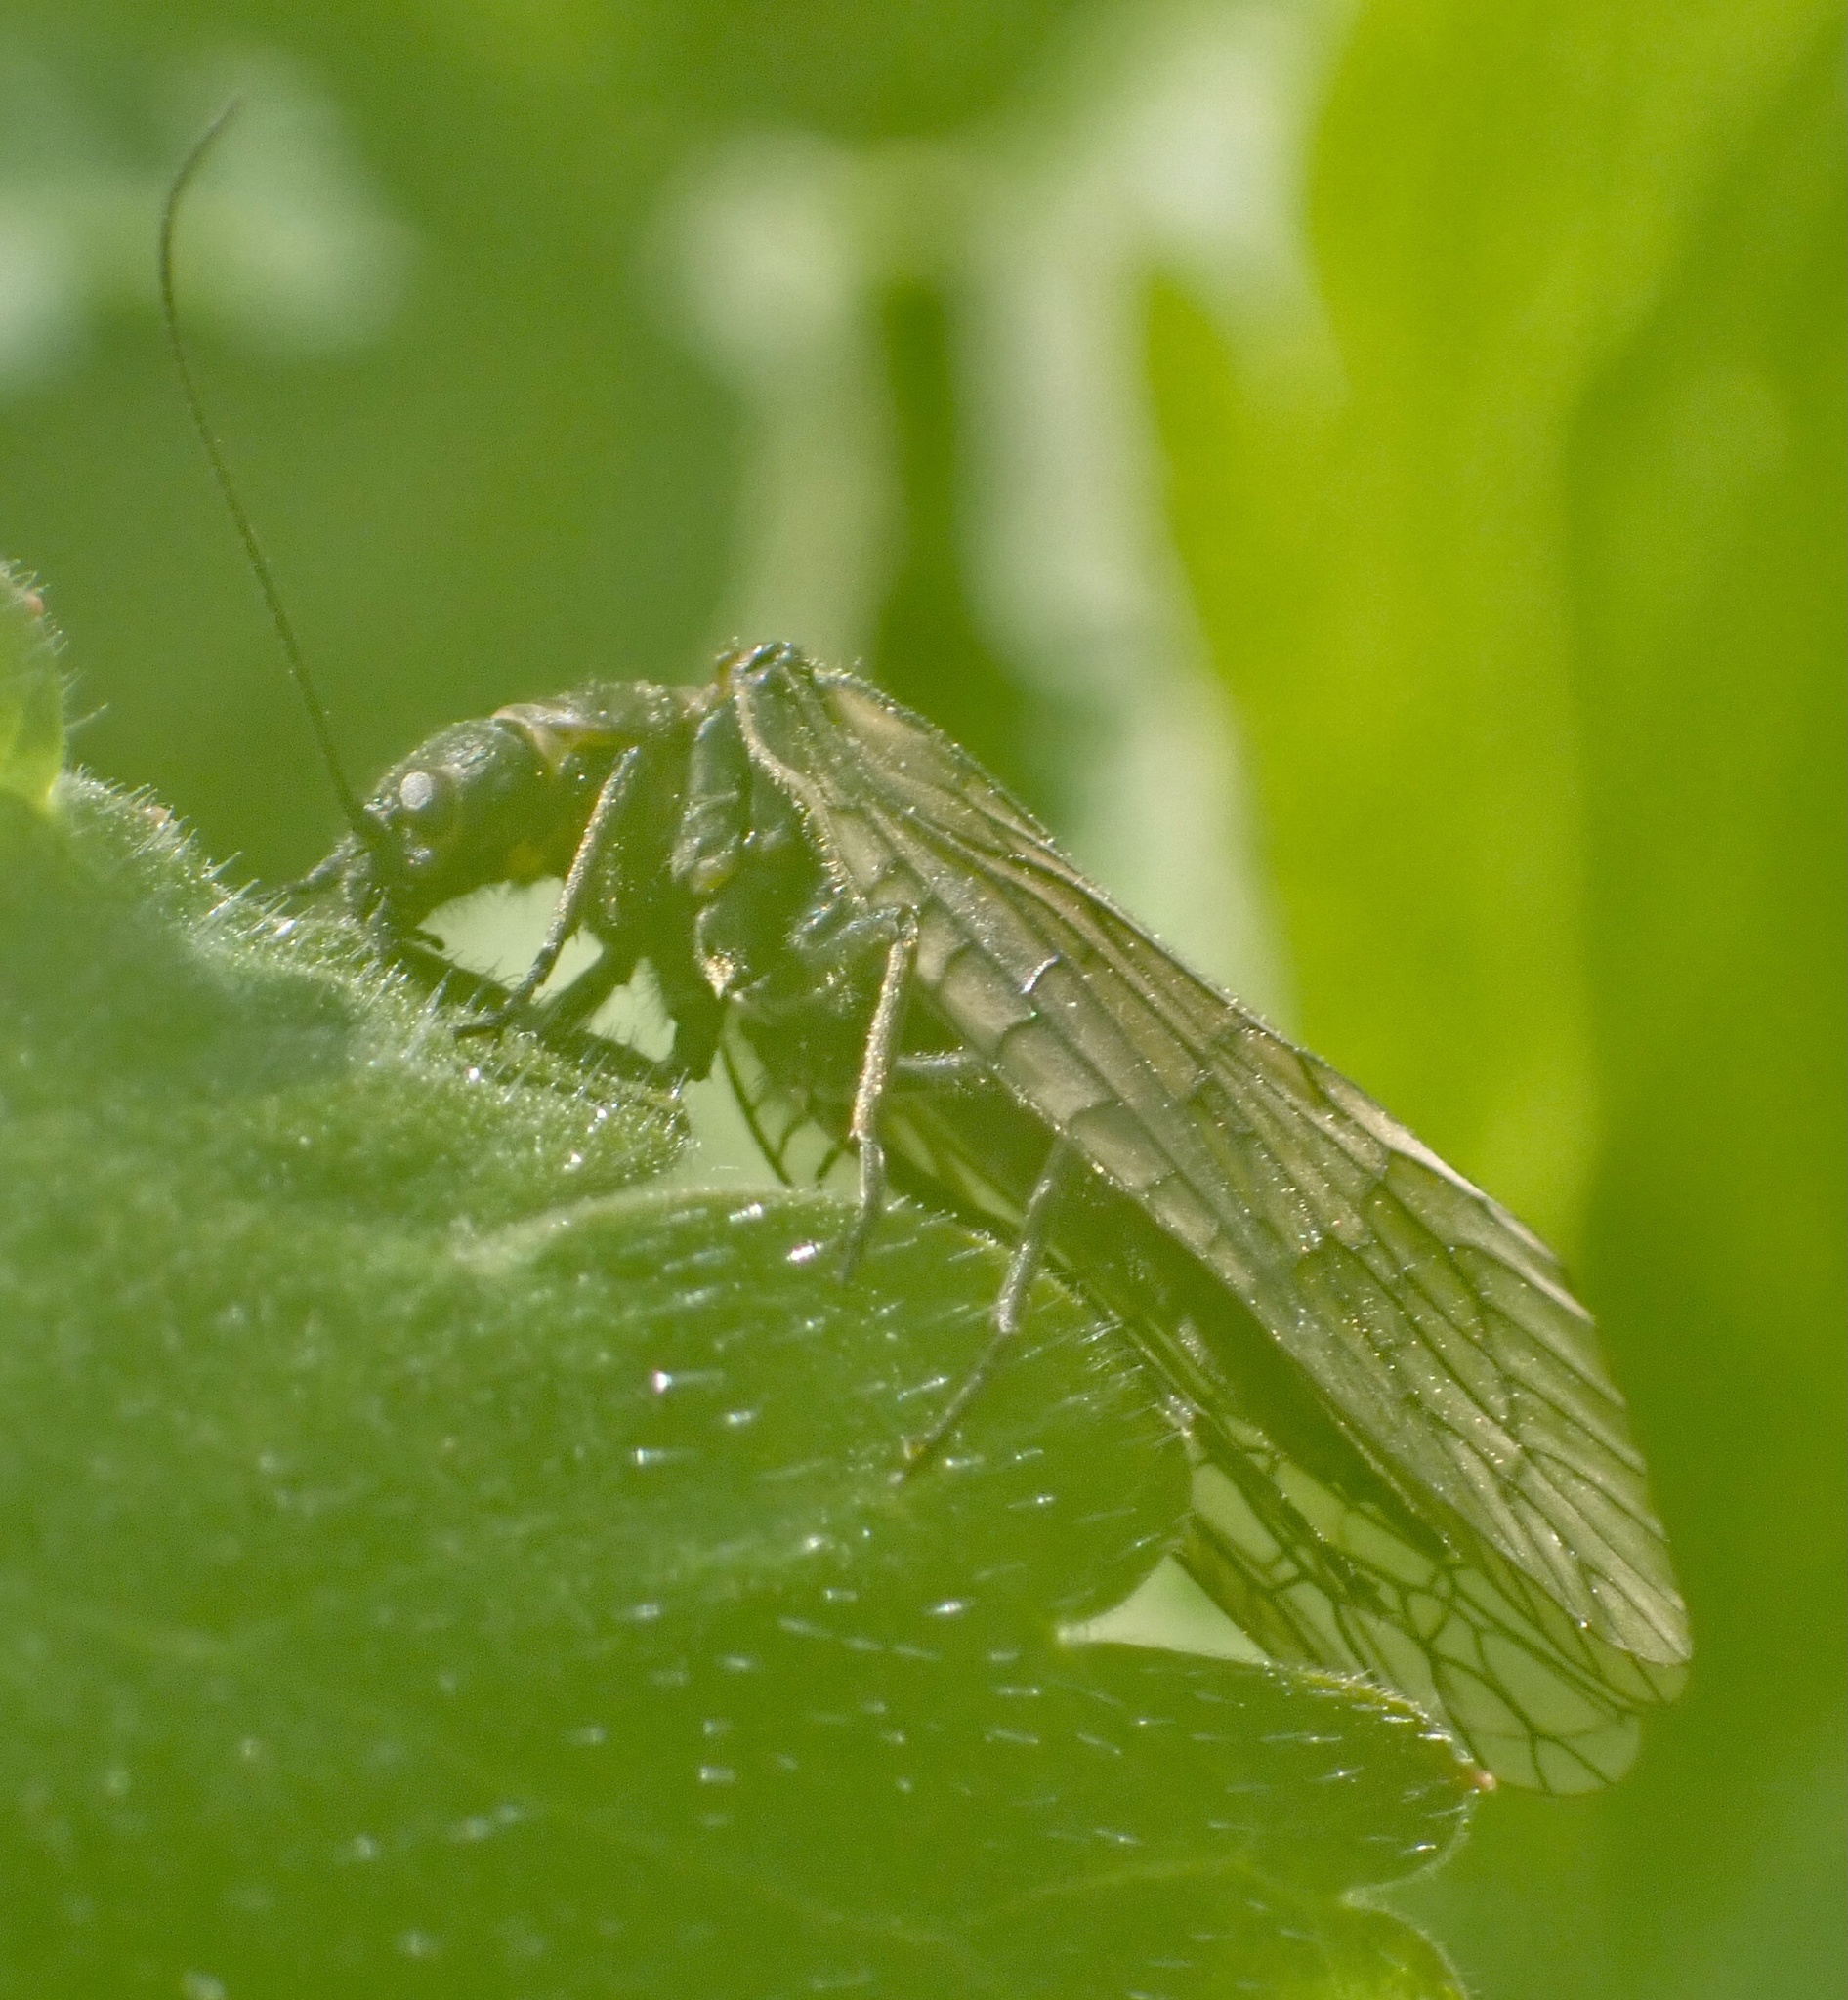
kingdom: Animalia
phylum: Arthropoda
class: Insecta
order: Megaloptera
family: Sialidae
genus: Sialis
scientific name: Sialis
